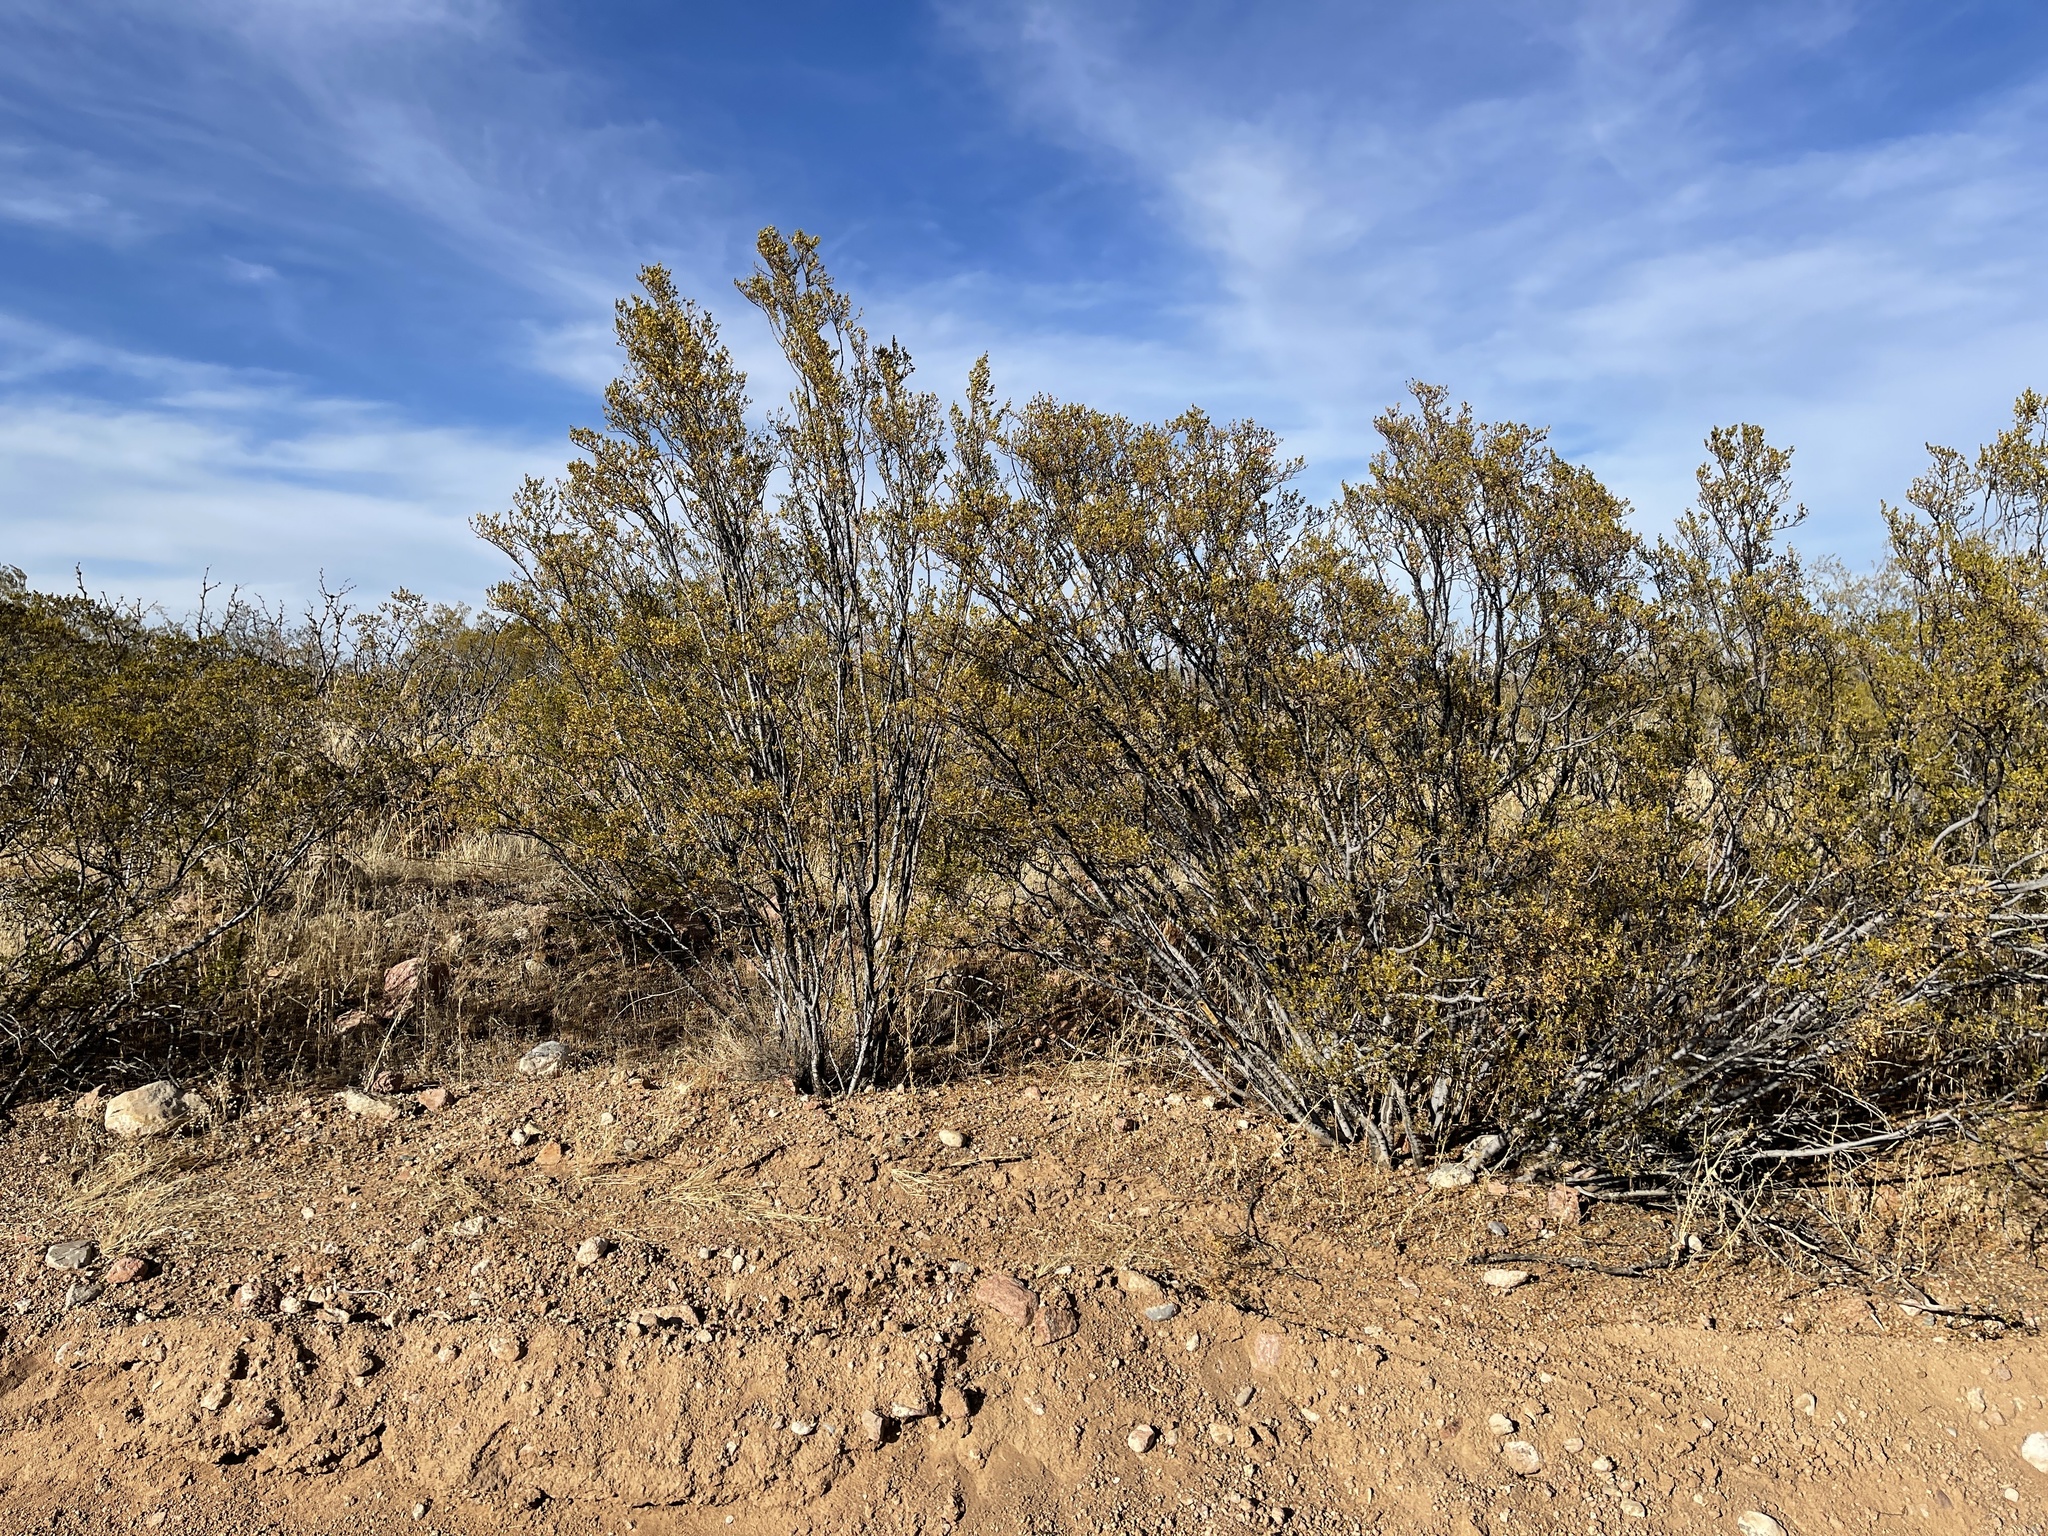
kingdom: Plantae
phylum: Tracheophyta
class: Magnoliopsida
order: Zygophyllales
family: Zygophyllaceae
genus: Larrea
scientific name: Larrea tridentata
